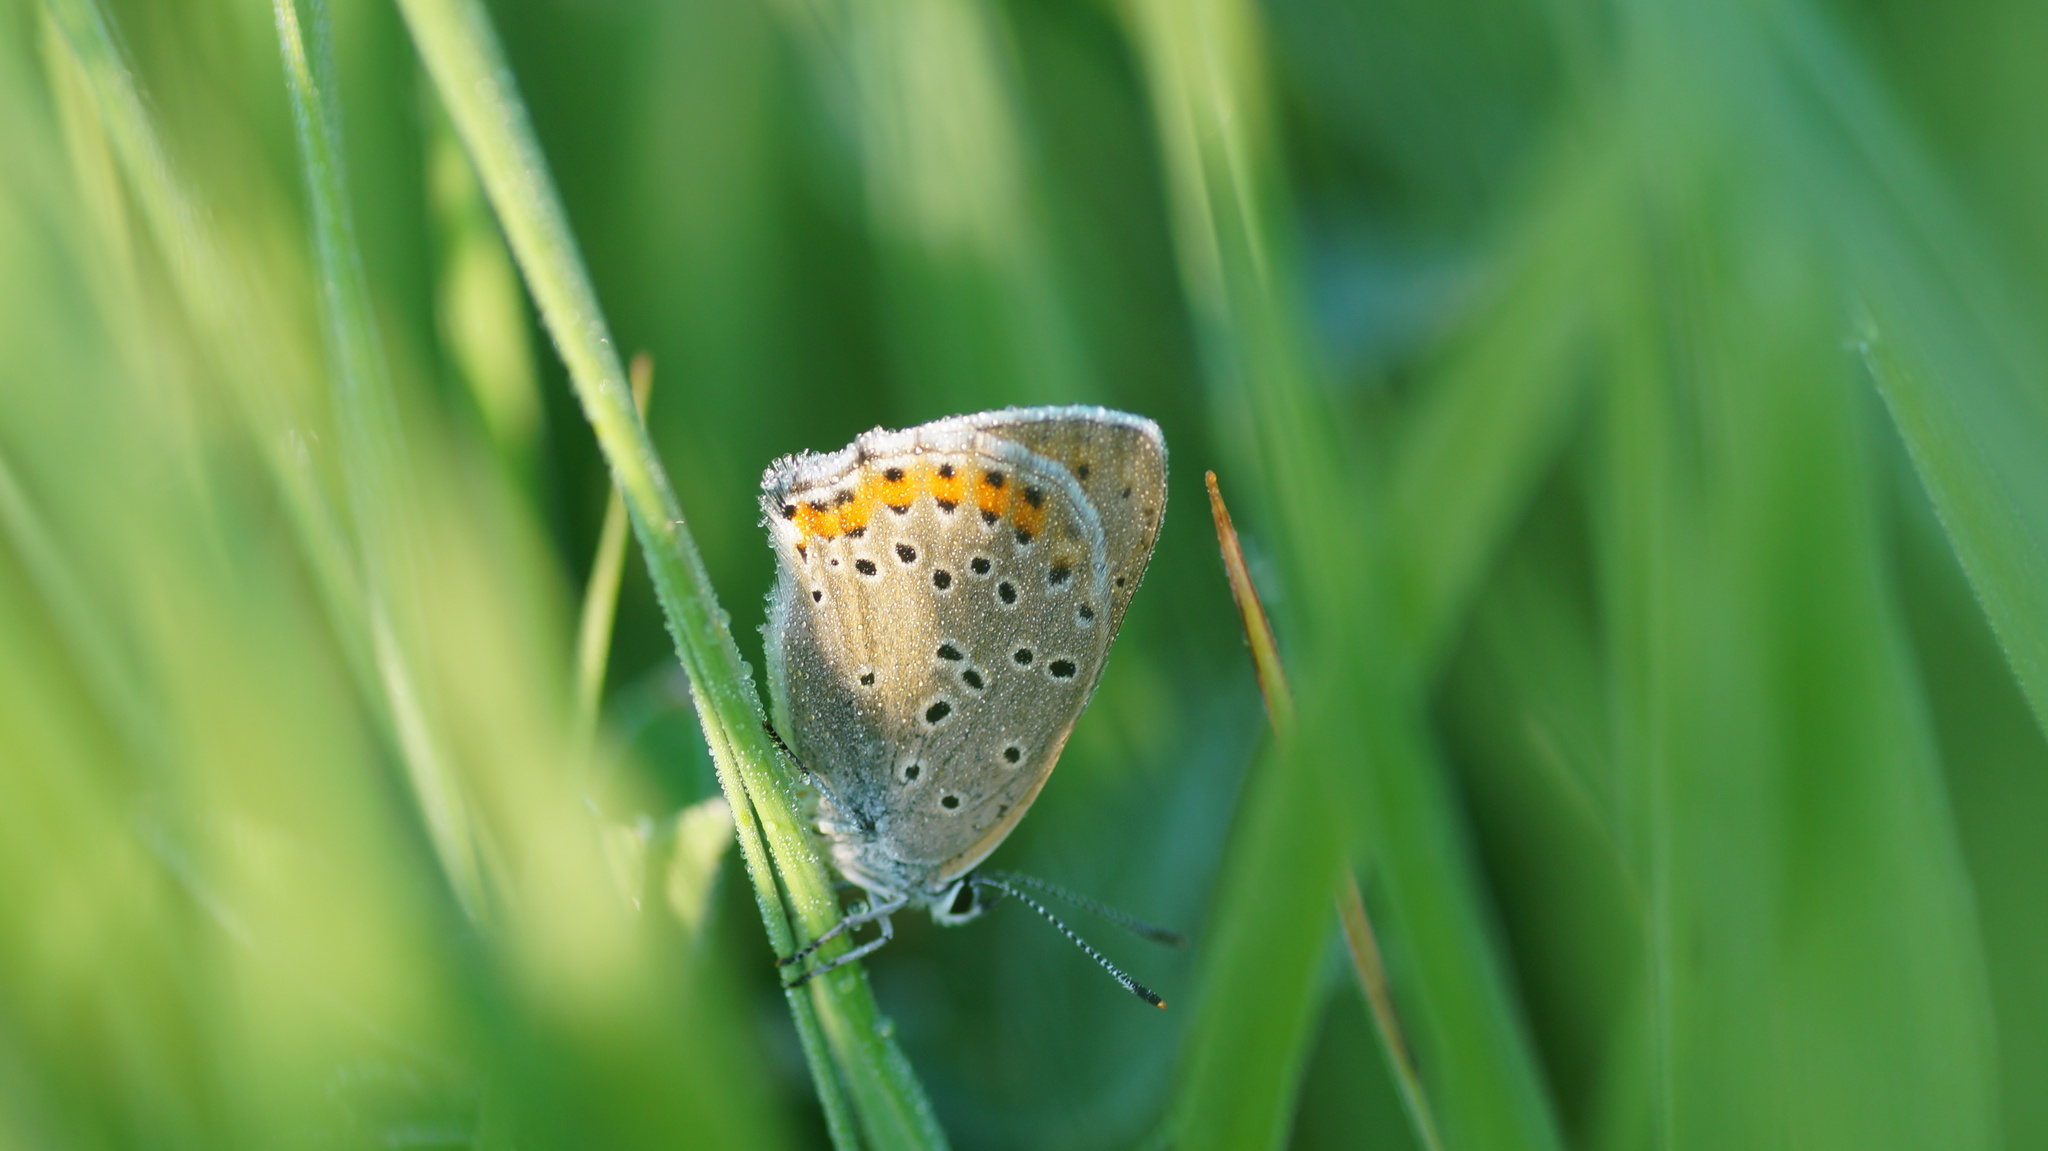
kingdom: Animalia
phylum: Arthropoda
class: Insecta
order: Lepidoptera
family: Lycaenidae
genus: Lycaena
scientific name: Lycaena alciphron
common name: Purple-shot copper
